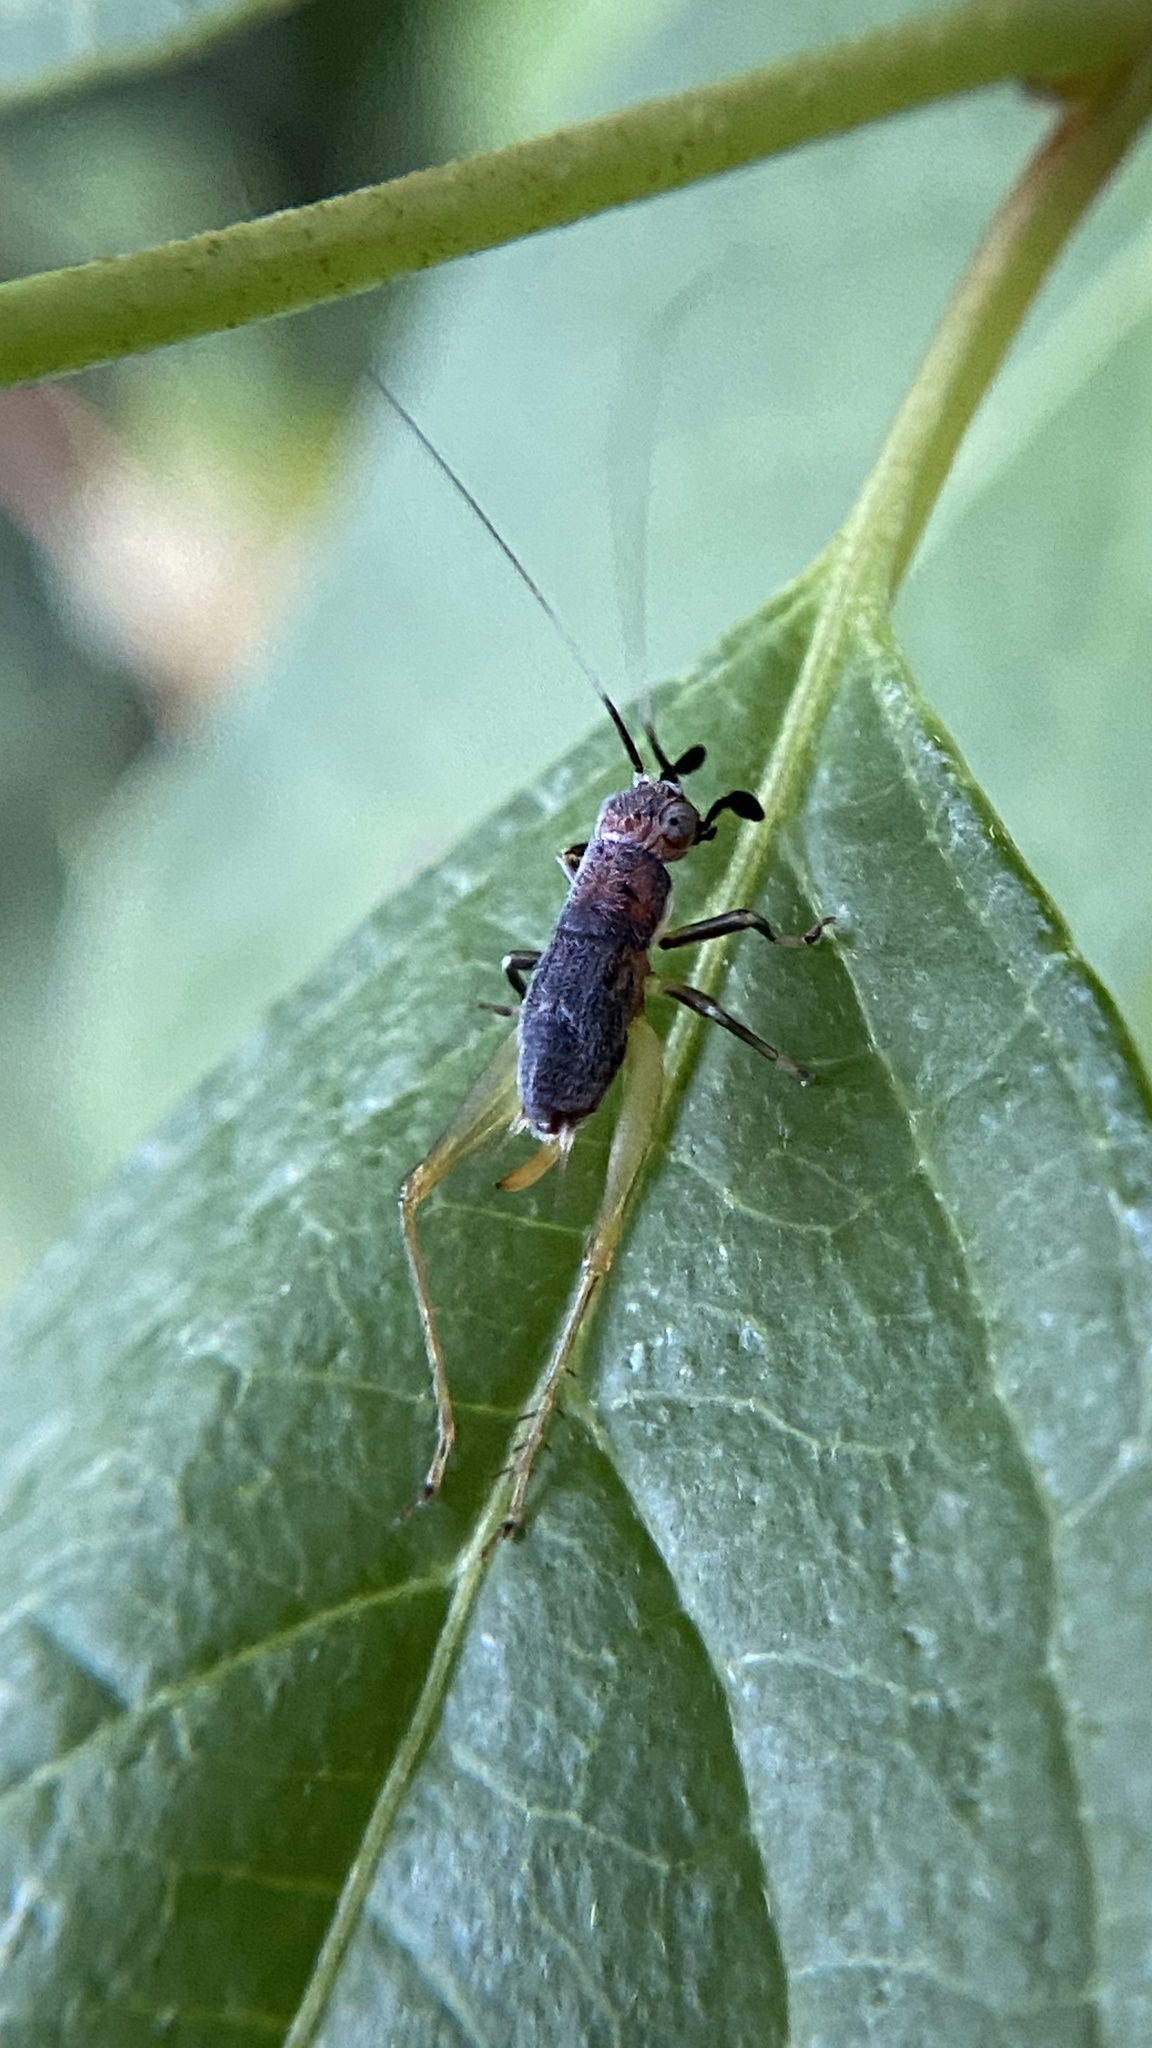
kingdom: Animalia
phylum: Arthropoda
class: Insecta
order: Orthoptera
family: Trigonidiidae
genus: Phyllopalpus
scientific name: Phyllopalpus pulchellus
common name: Handsome trig
